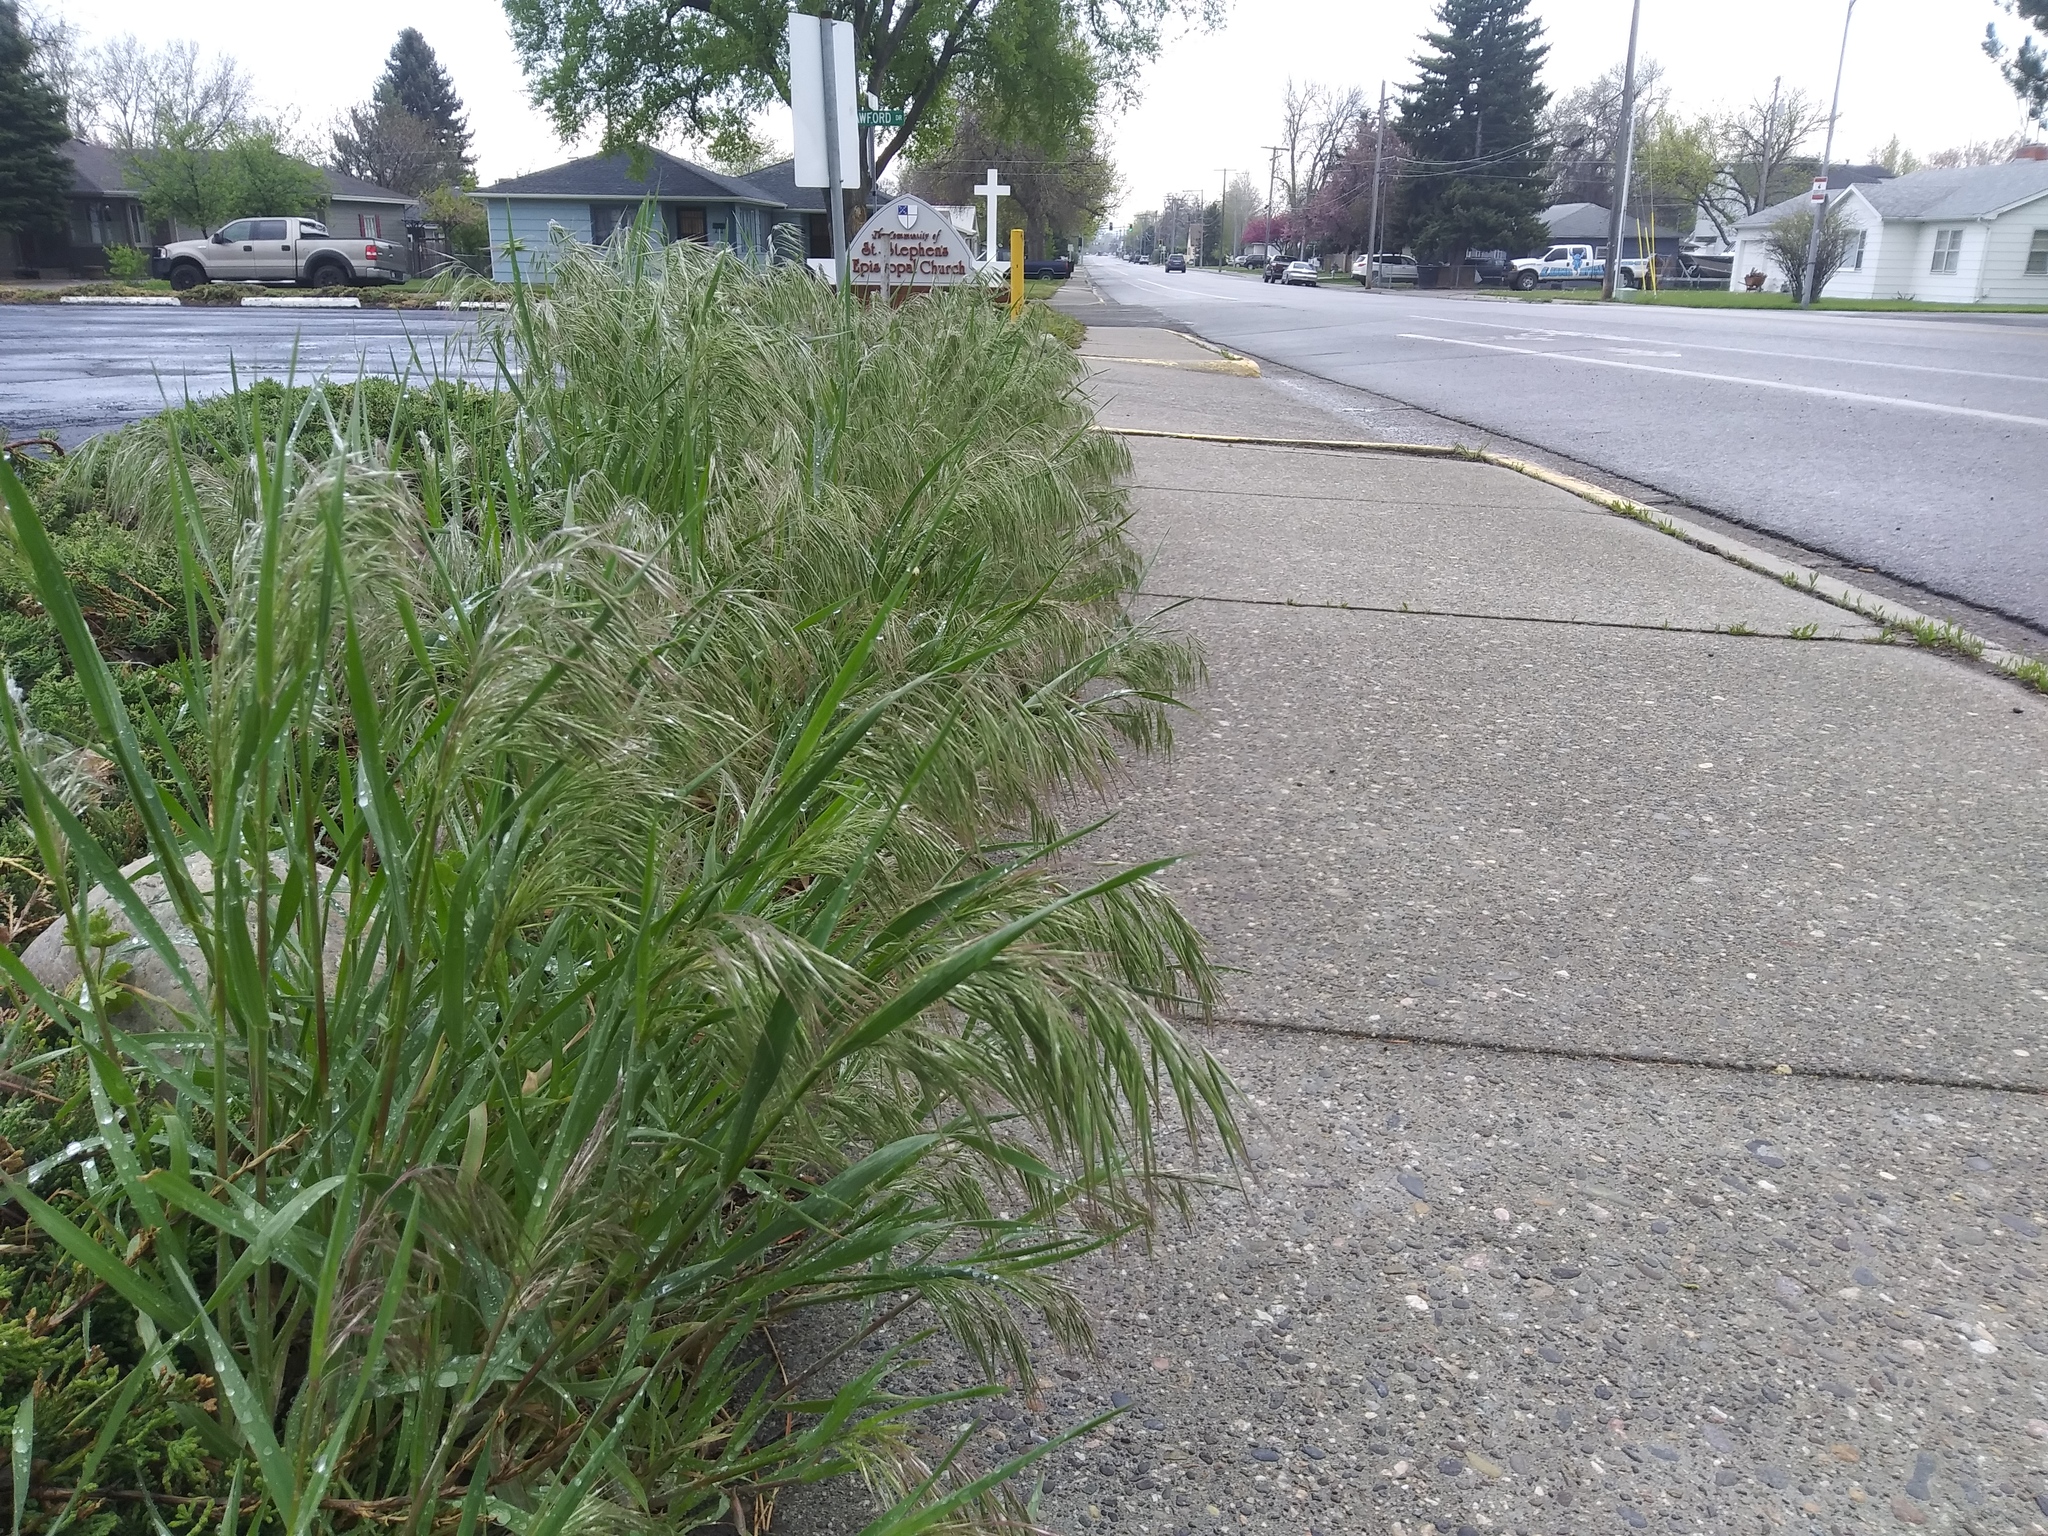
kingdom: Plantae
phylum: Tracheophyta
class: Liliopsida
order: Poales
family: Poaceae
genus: Bromus
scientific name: Bromus tectorum
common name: Cheatgrass
